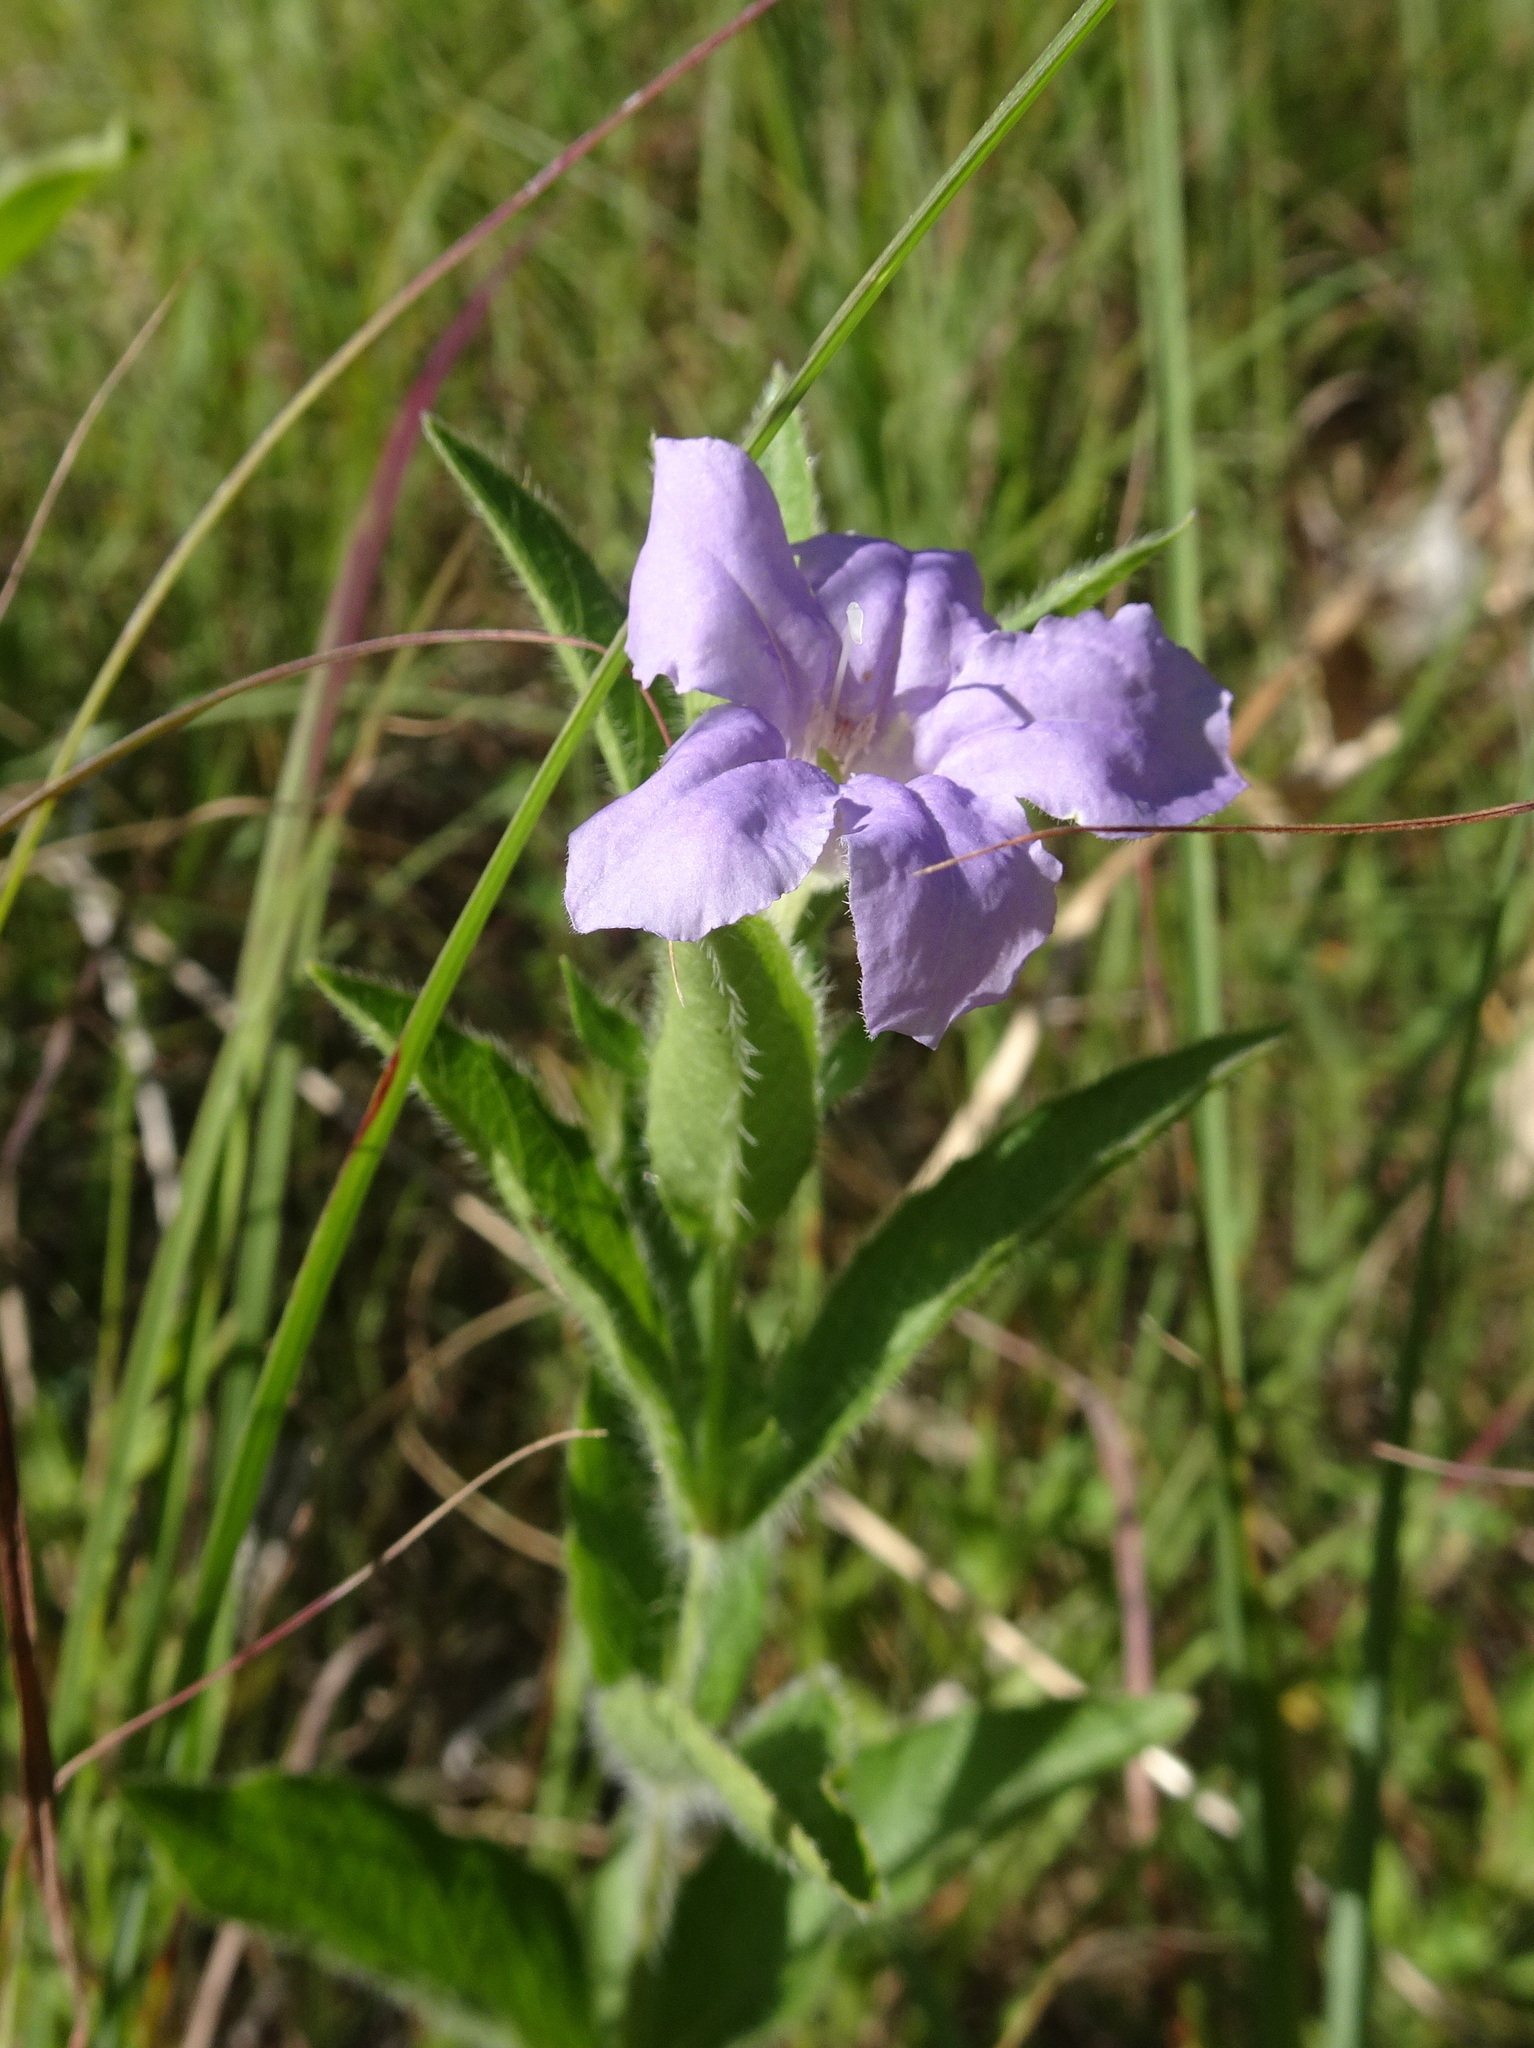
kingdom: Plantae
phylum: Tracheophyta
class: Magnoliopsida
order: Lamiales
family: Acanthaceae
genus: Ruellia
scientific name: Ruellia humilis
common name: Fringe-leaf ruellia
